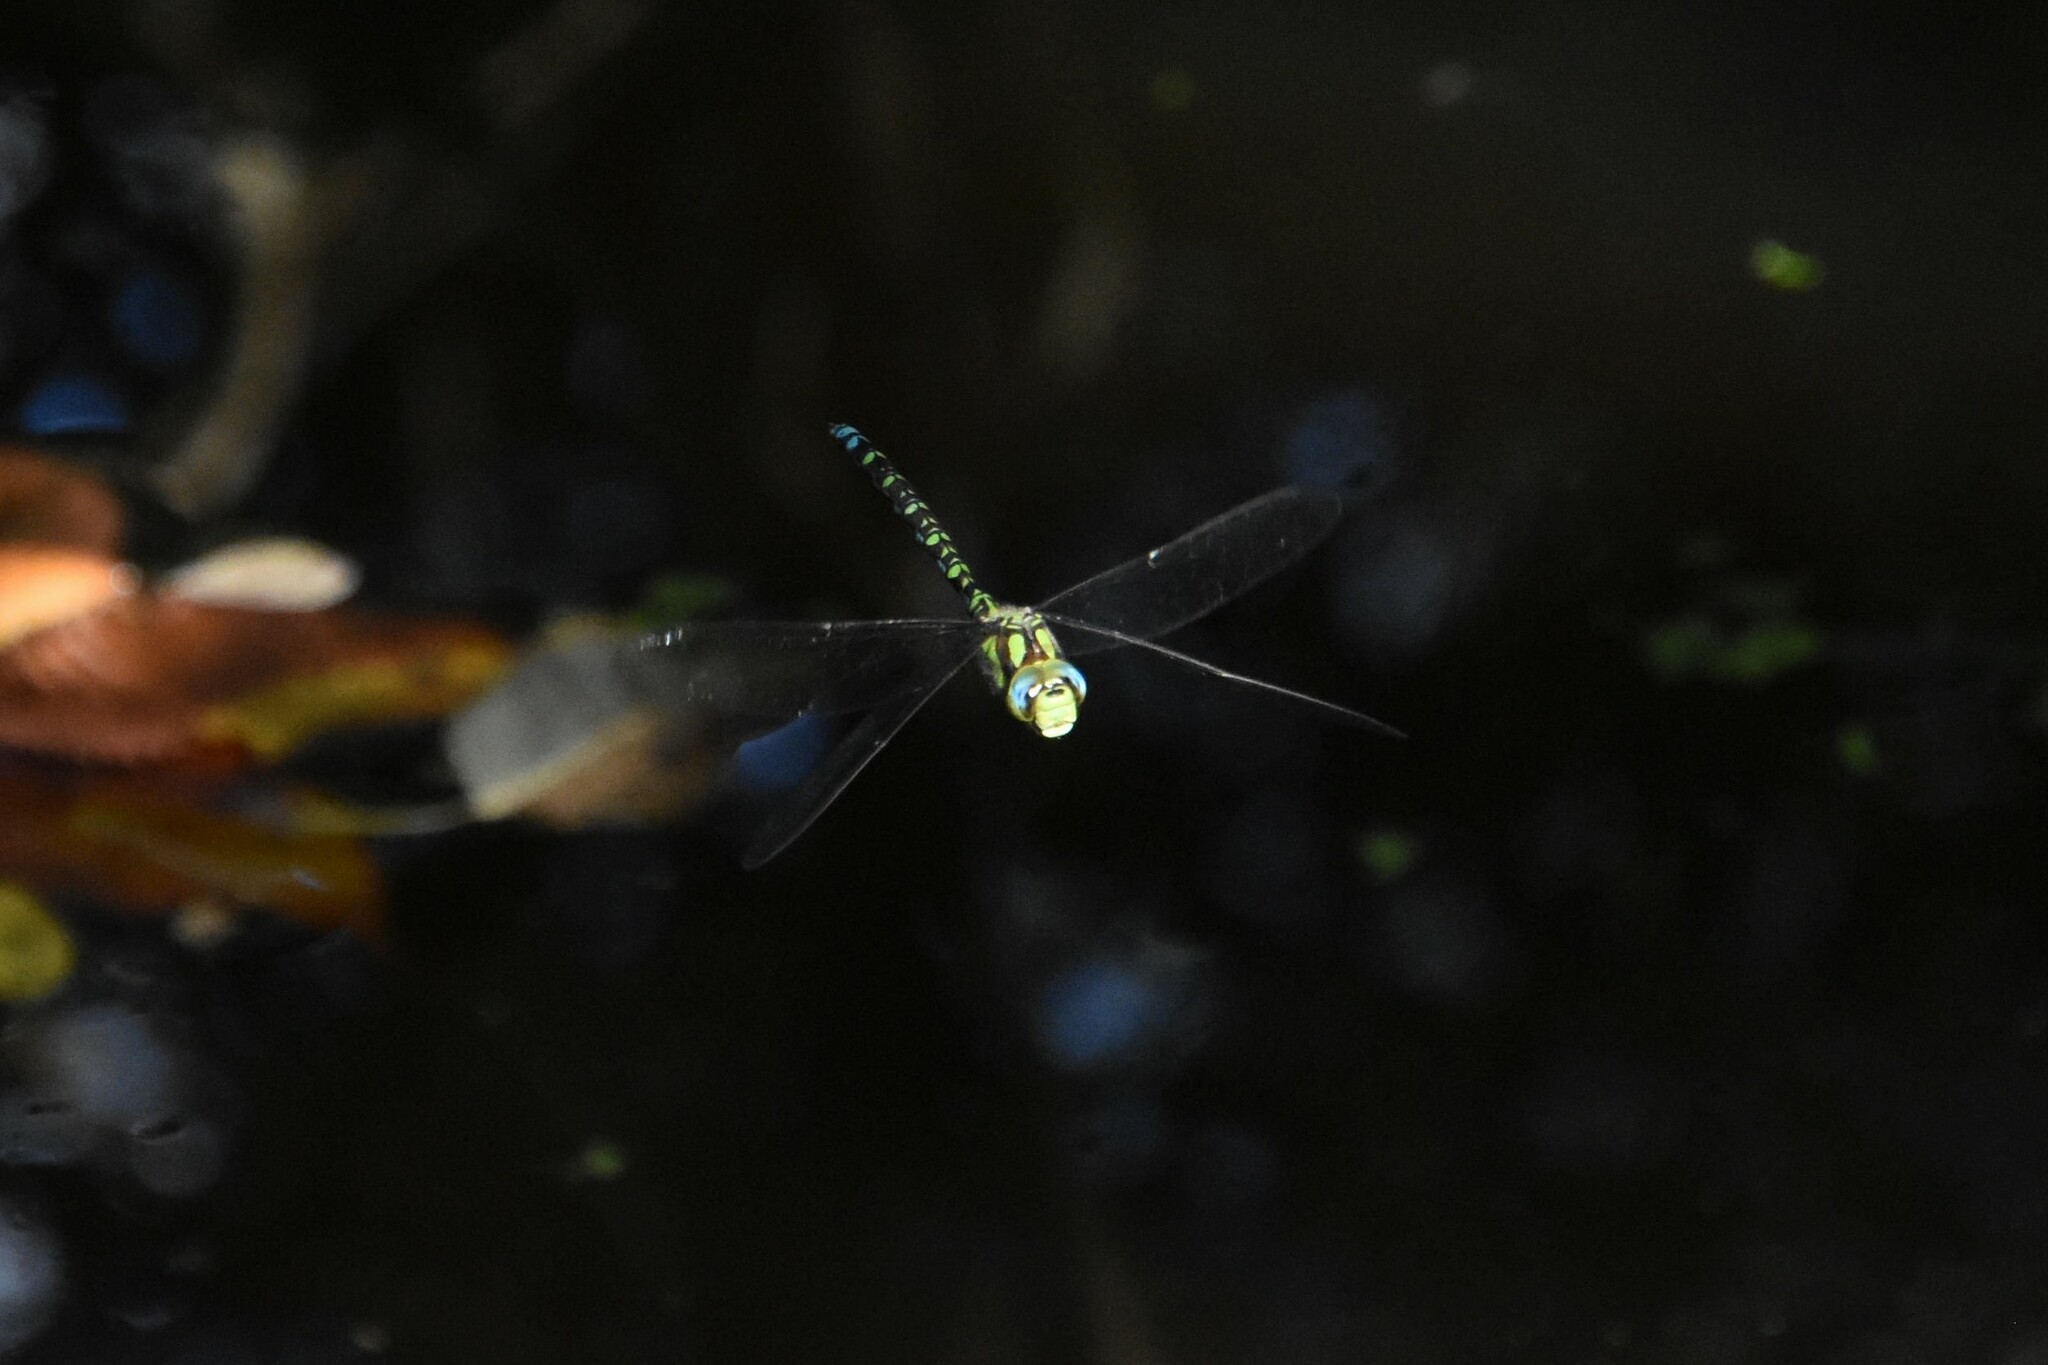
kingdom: Animalia
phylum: Arthropoda
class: Insecta
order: Odonata
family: Aeshnidae
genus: Aeshna
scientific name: Aeshna cyanea
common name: Southern hawker
